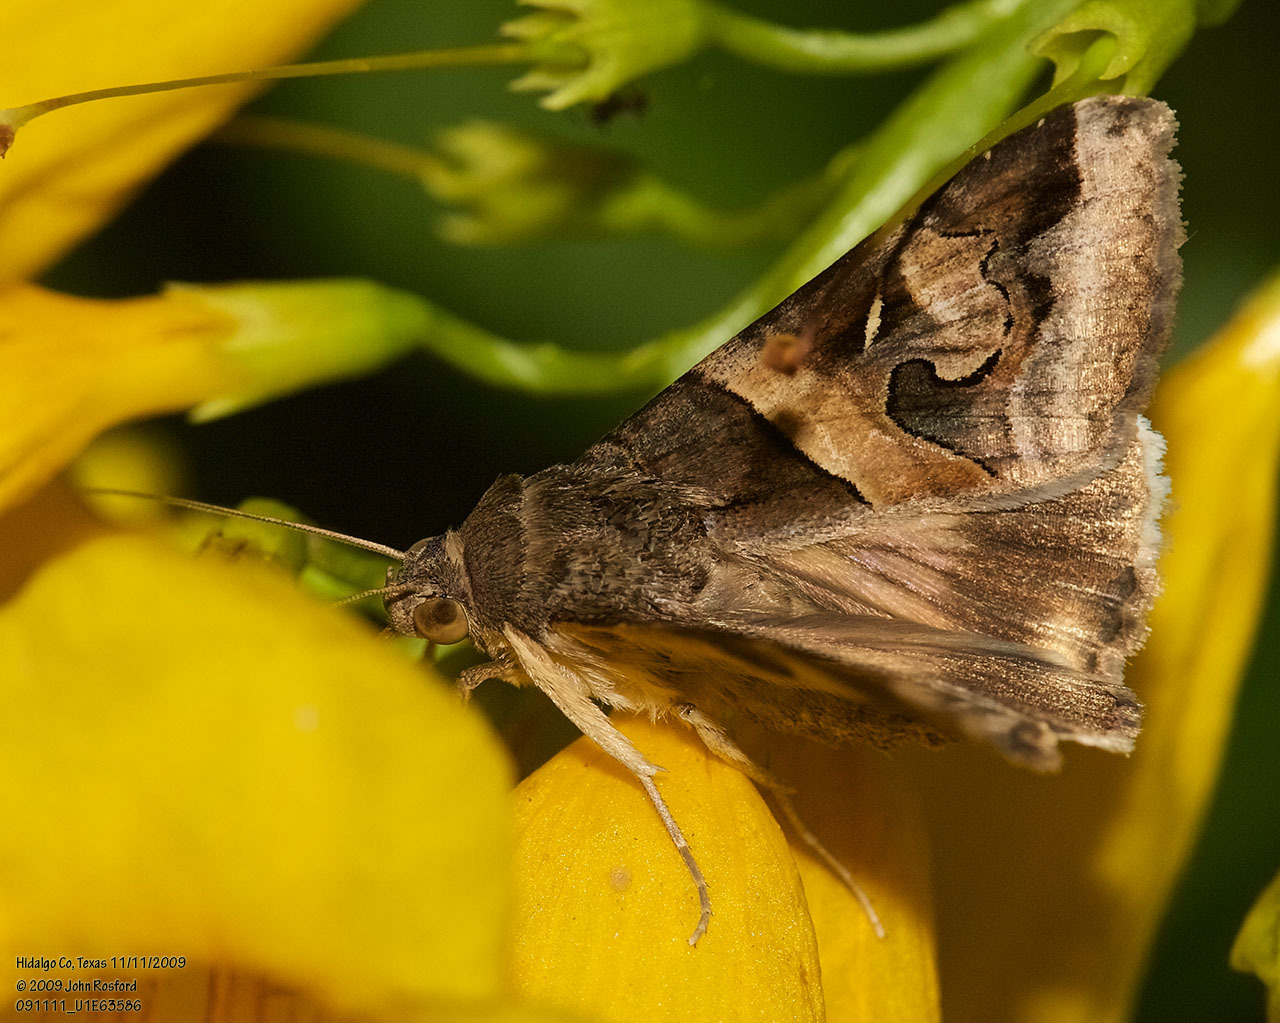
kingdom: Animalia
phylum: Arthropoda
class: Insecta
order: Lepidoptera
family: Erebidae
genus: Melipotis
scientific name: Melipotis indomita
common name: Moth
